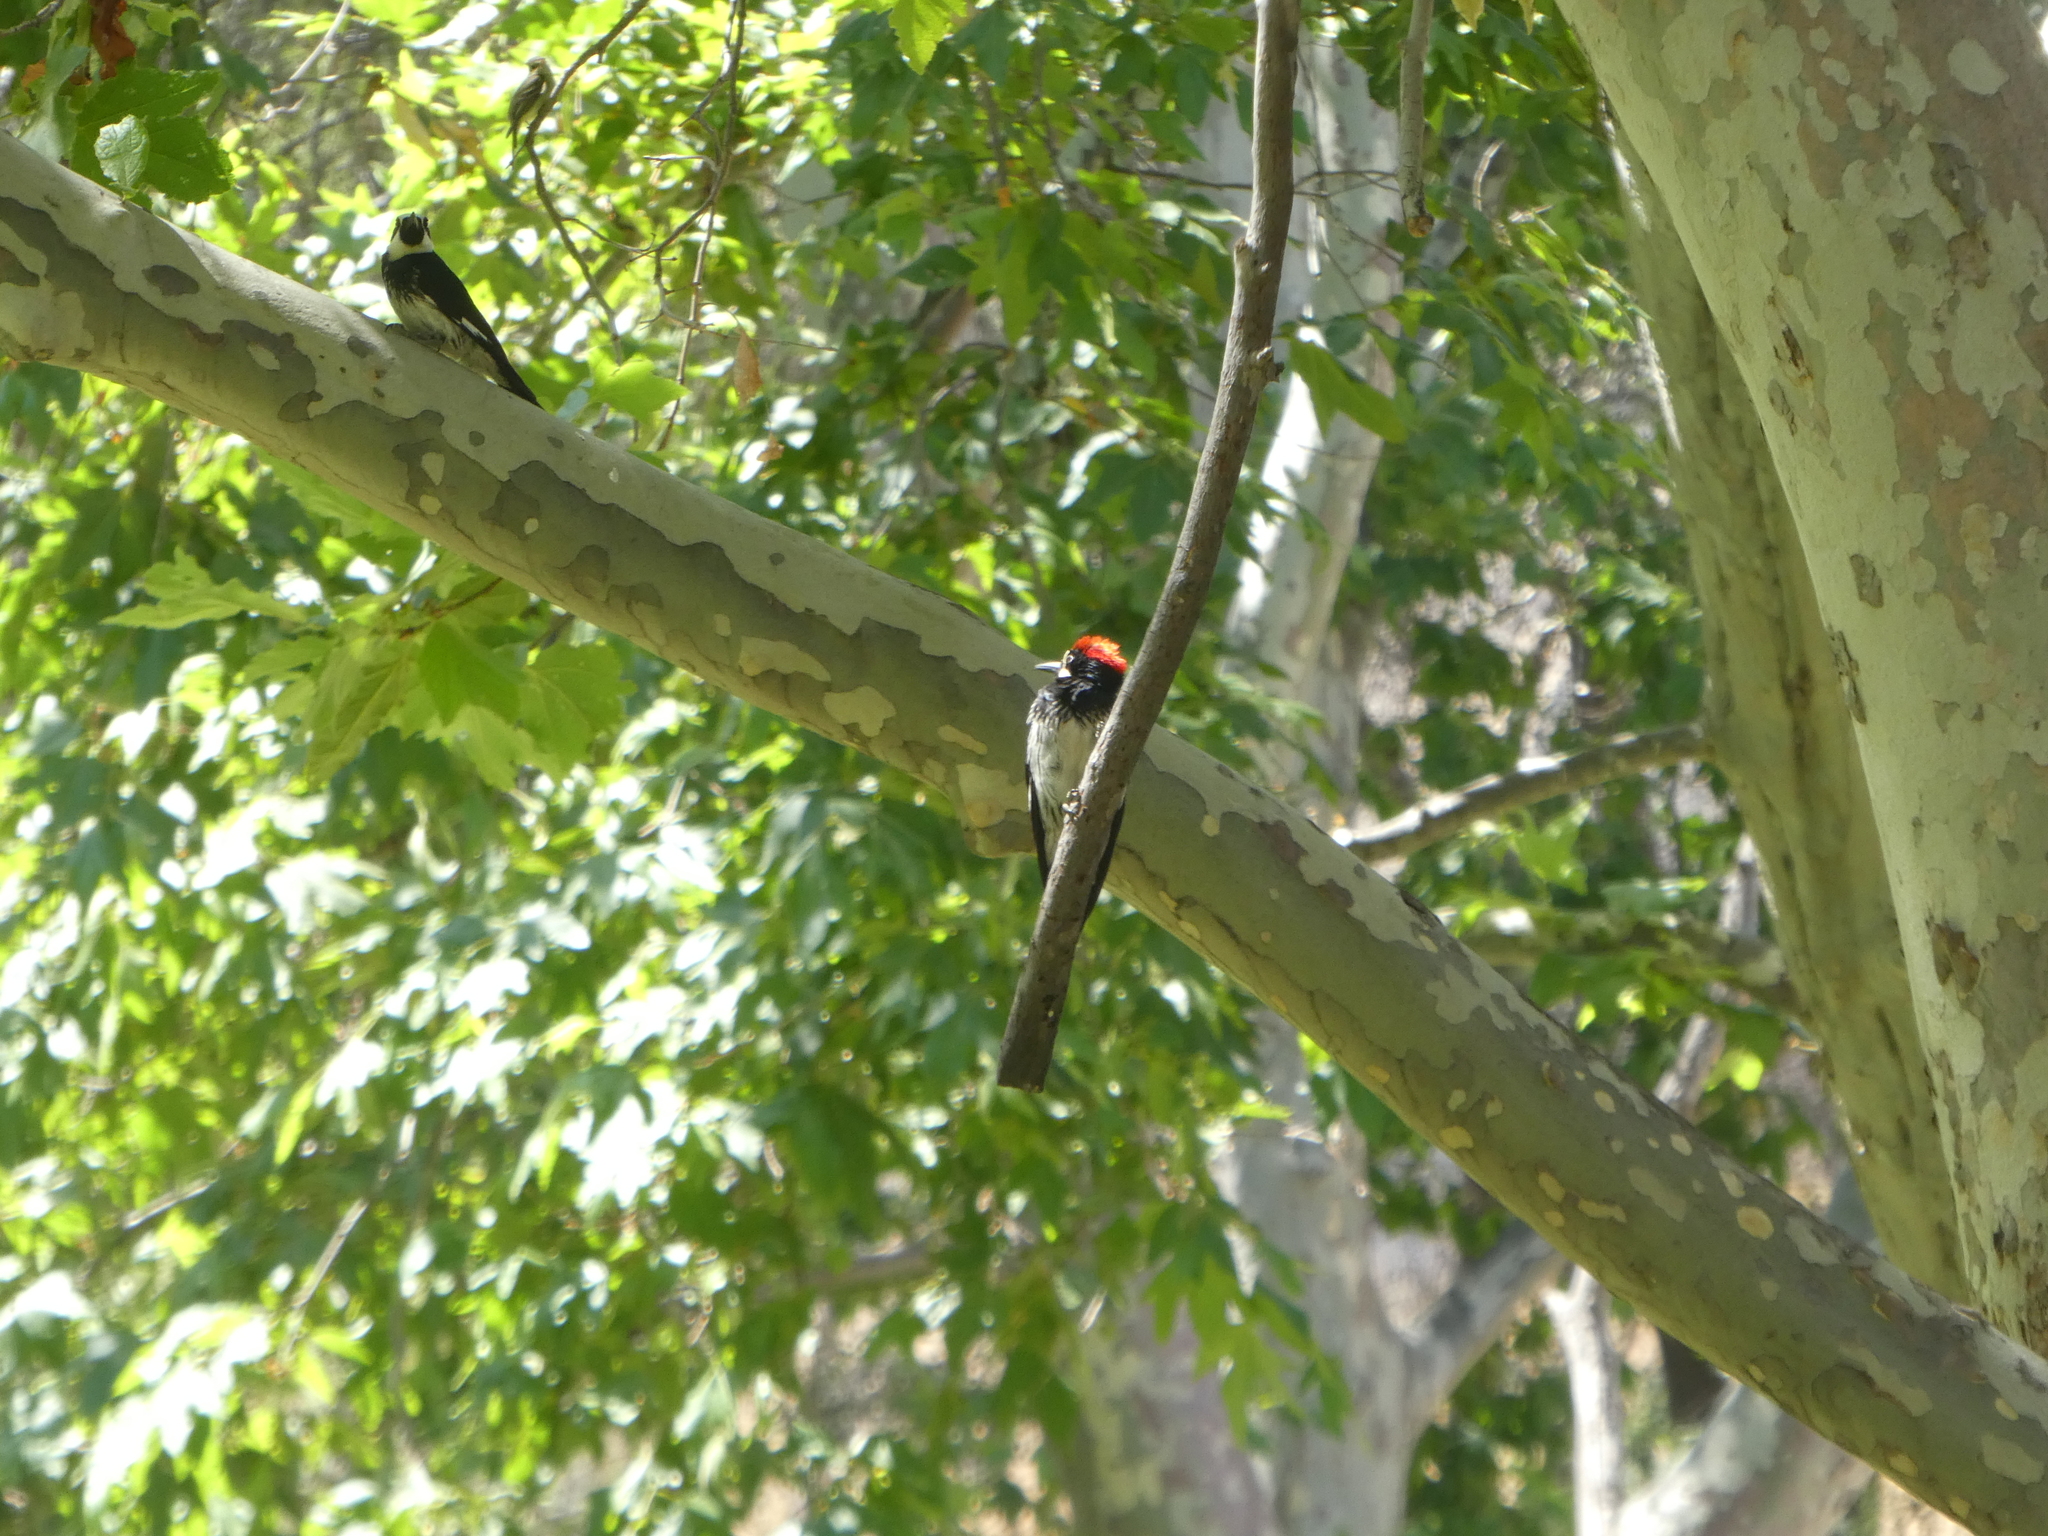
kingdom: Animalia
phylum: Chordata
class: Aves
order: Piciformes
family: Picidae
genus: Melanerpes
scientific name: Melanerpes formicivorus
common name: Acorn woodpecker
